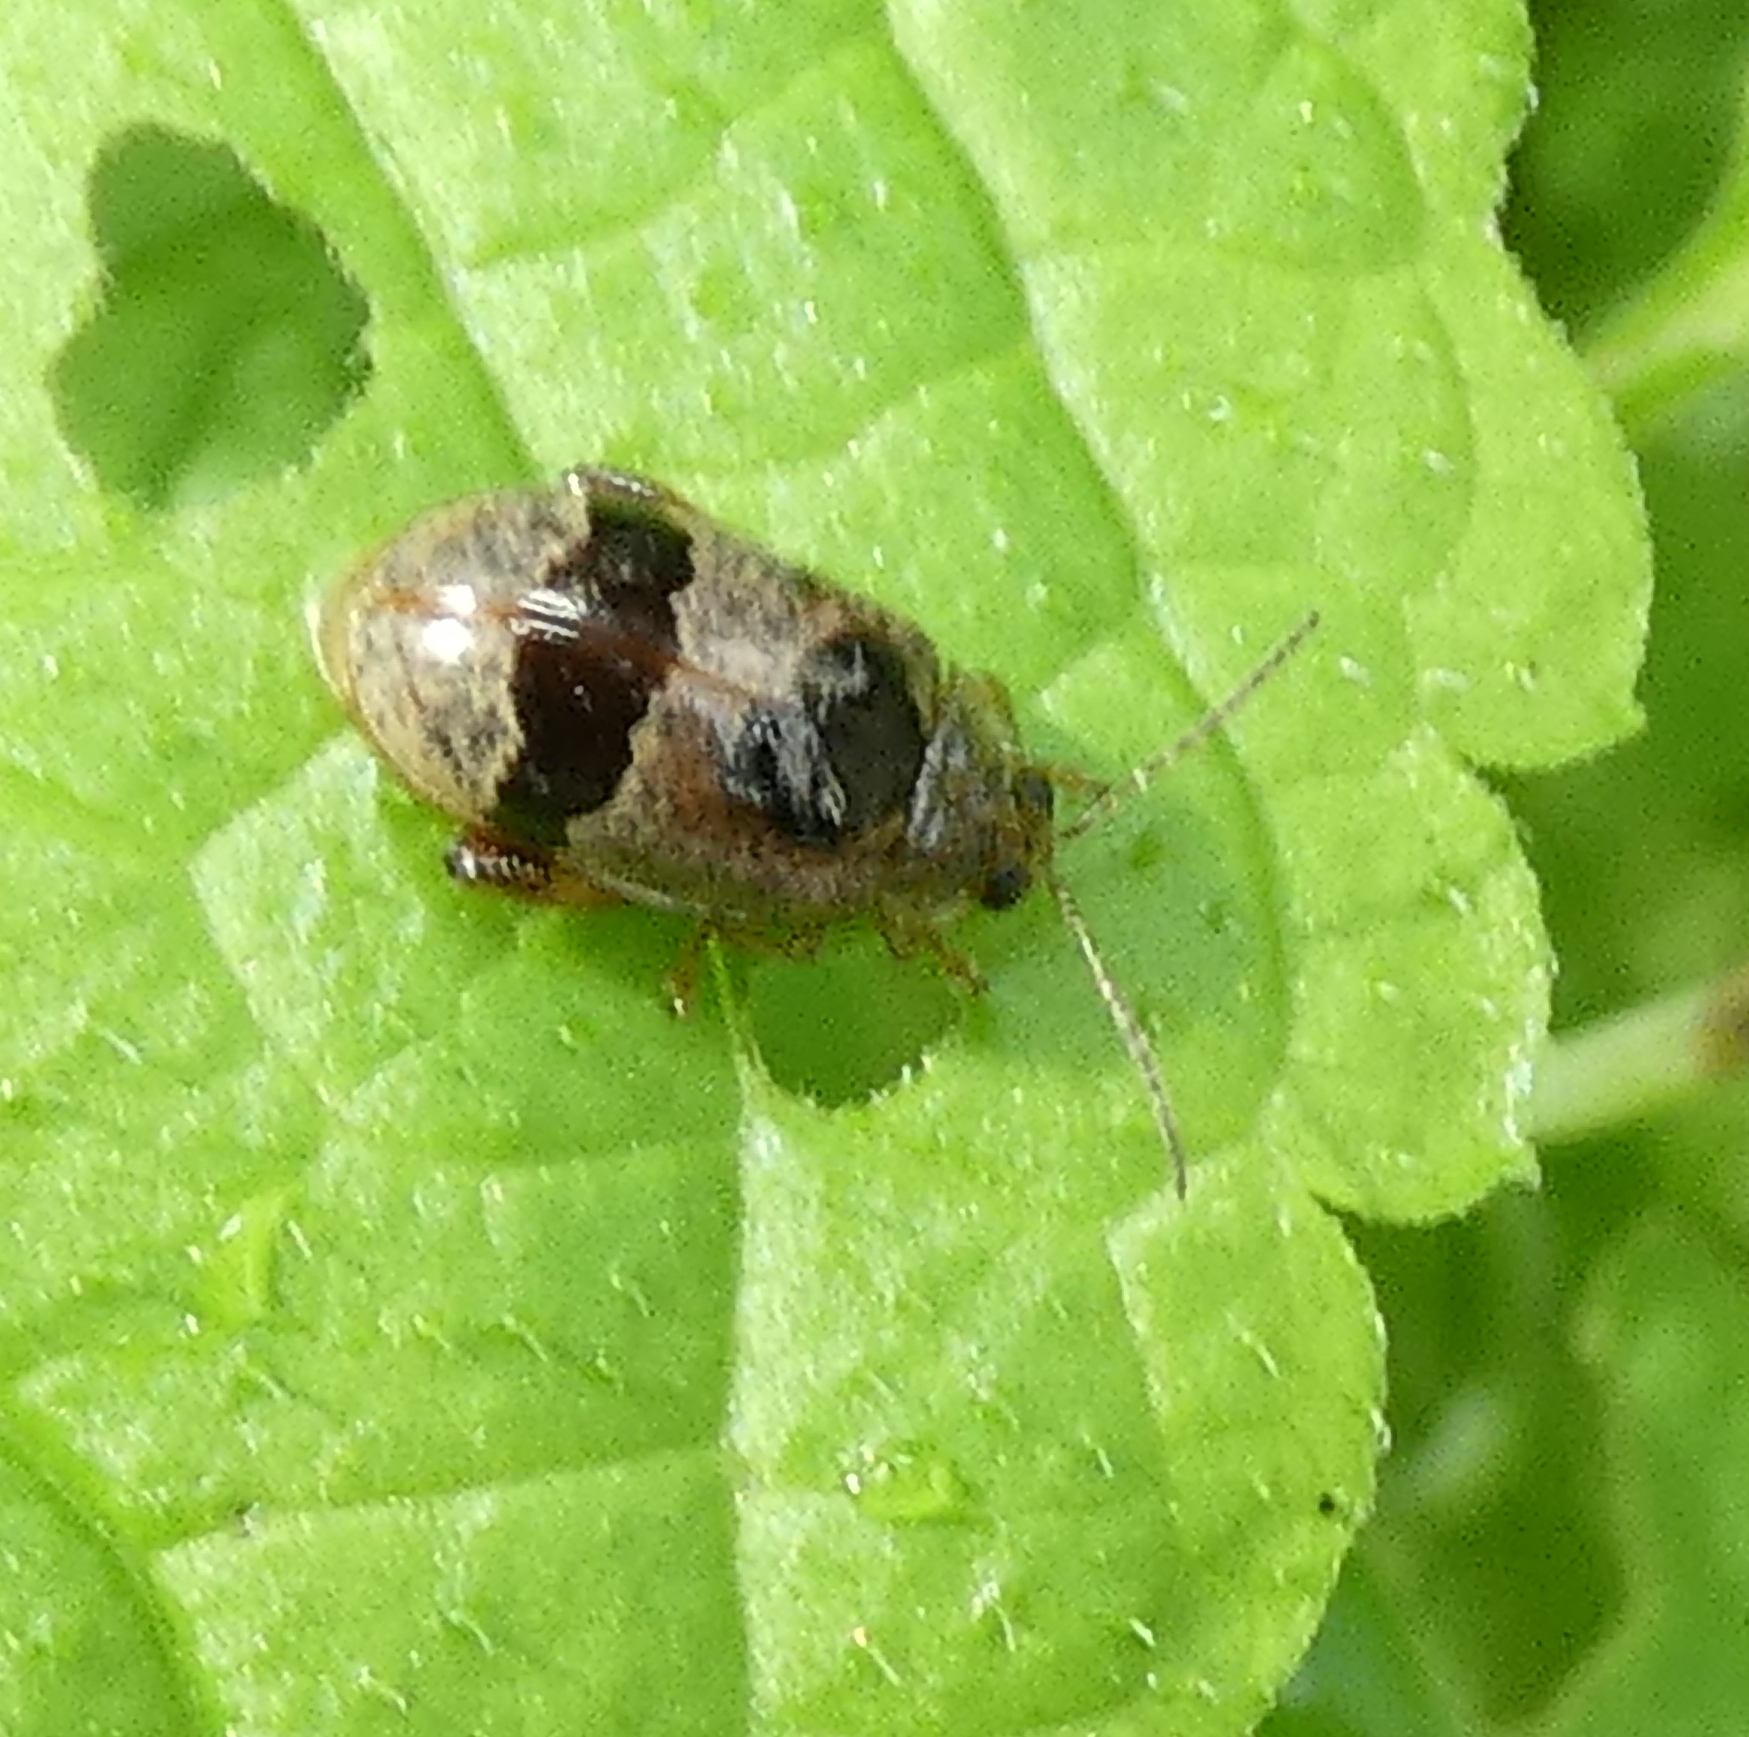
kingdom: Animalia
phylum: Arthropoda
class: Insecta
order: Coleoptera
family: Chrysomelidae
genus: Alagoasa
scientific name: Alagoasa
